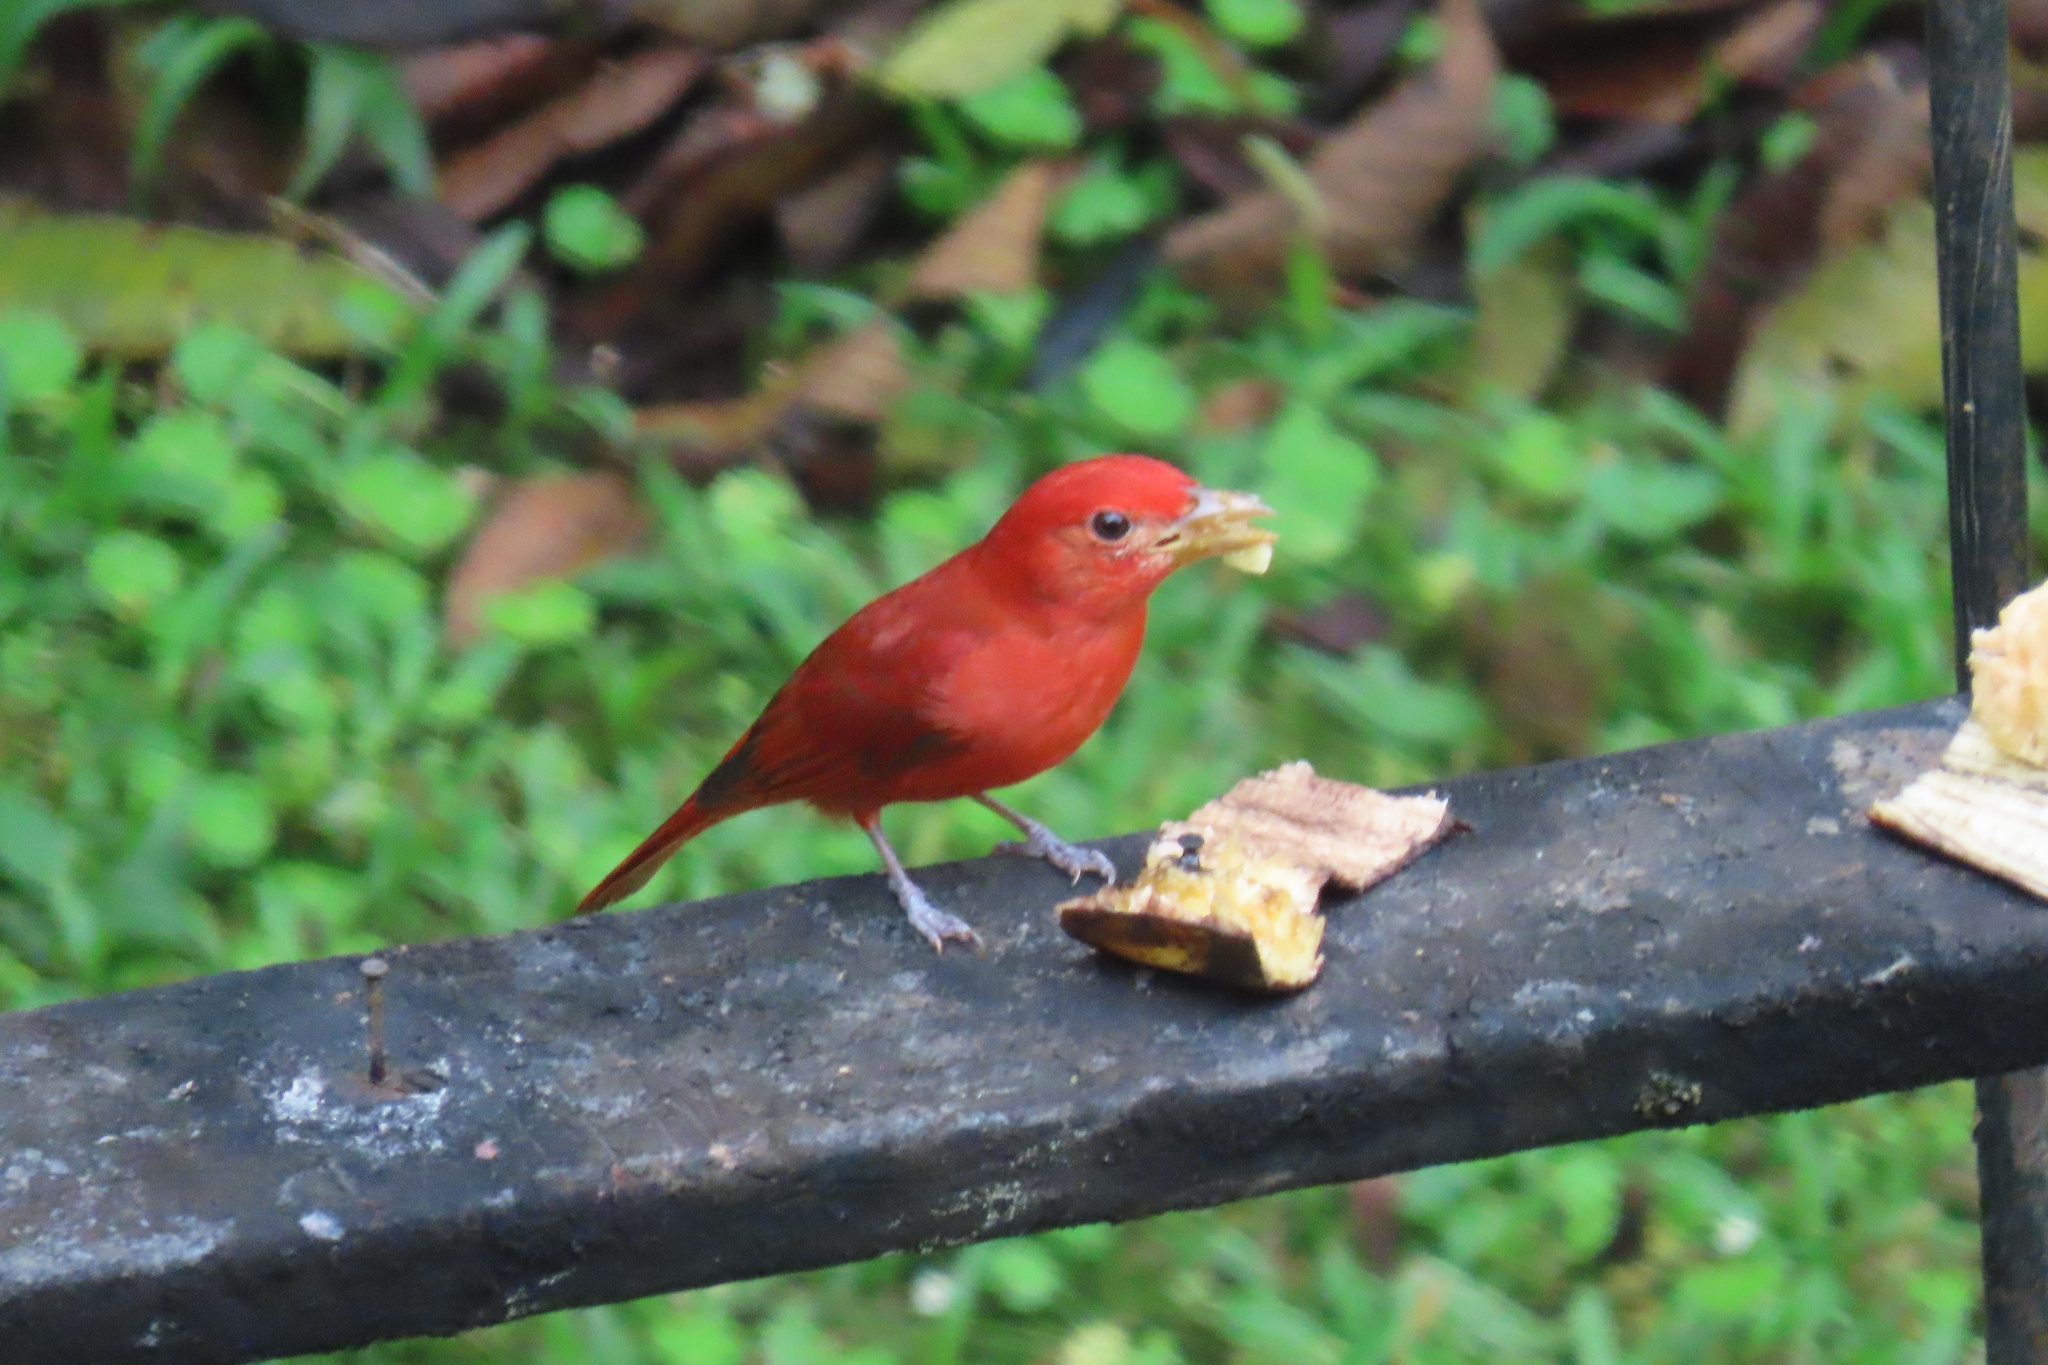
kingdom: Animalia
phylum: Chordata
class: Aves
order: Passeriformes
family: Cardinalidae
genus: Piranga
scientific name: Piranga rubra
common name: Summer tanager
